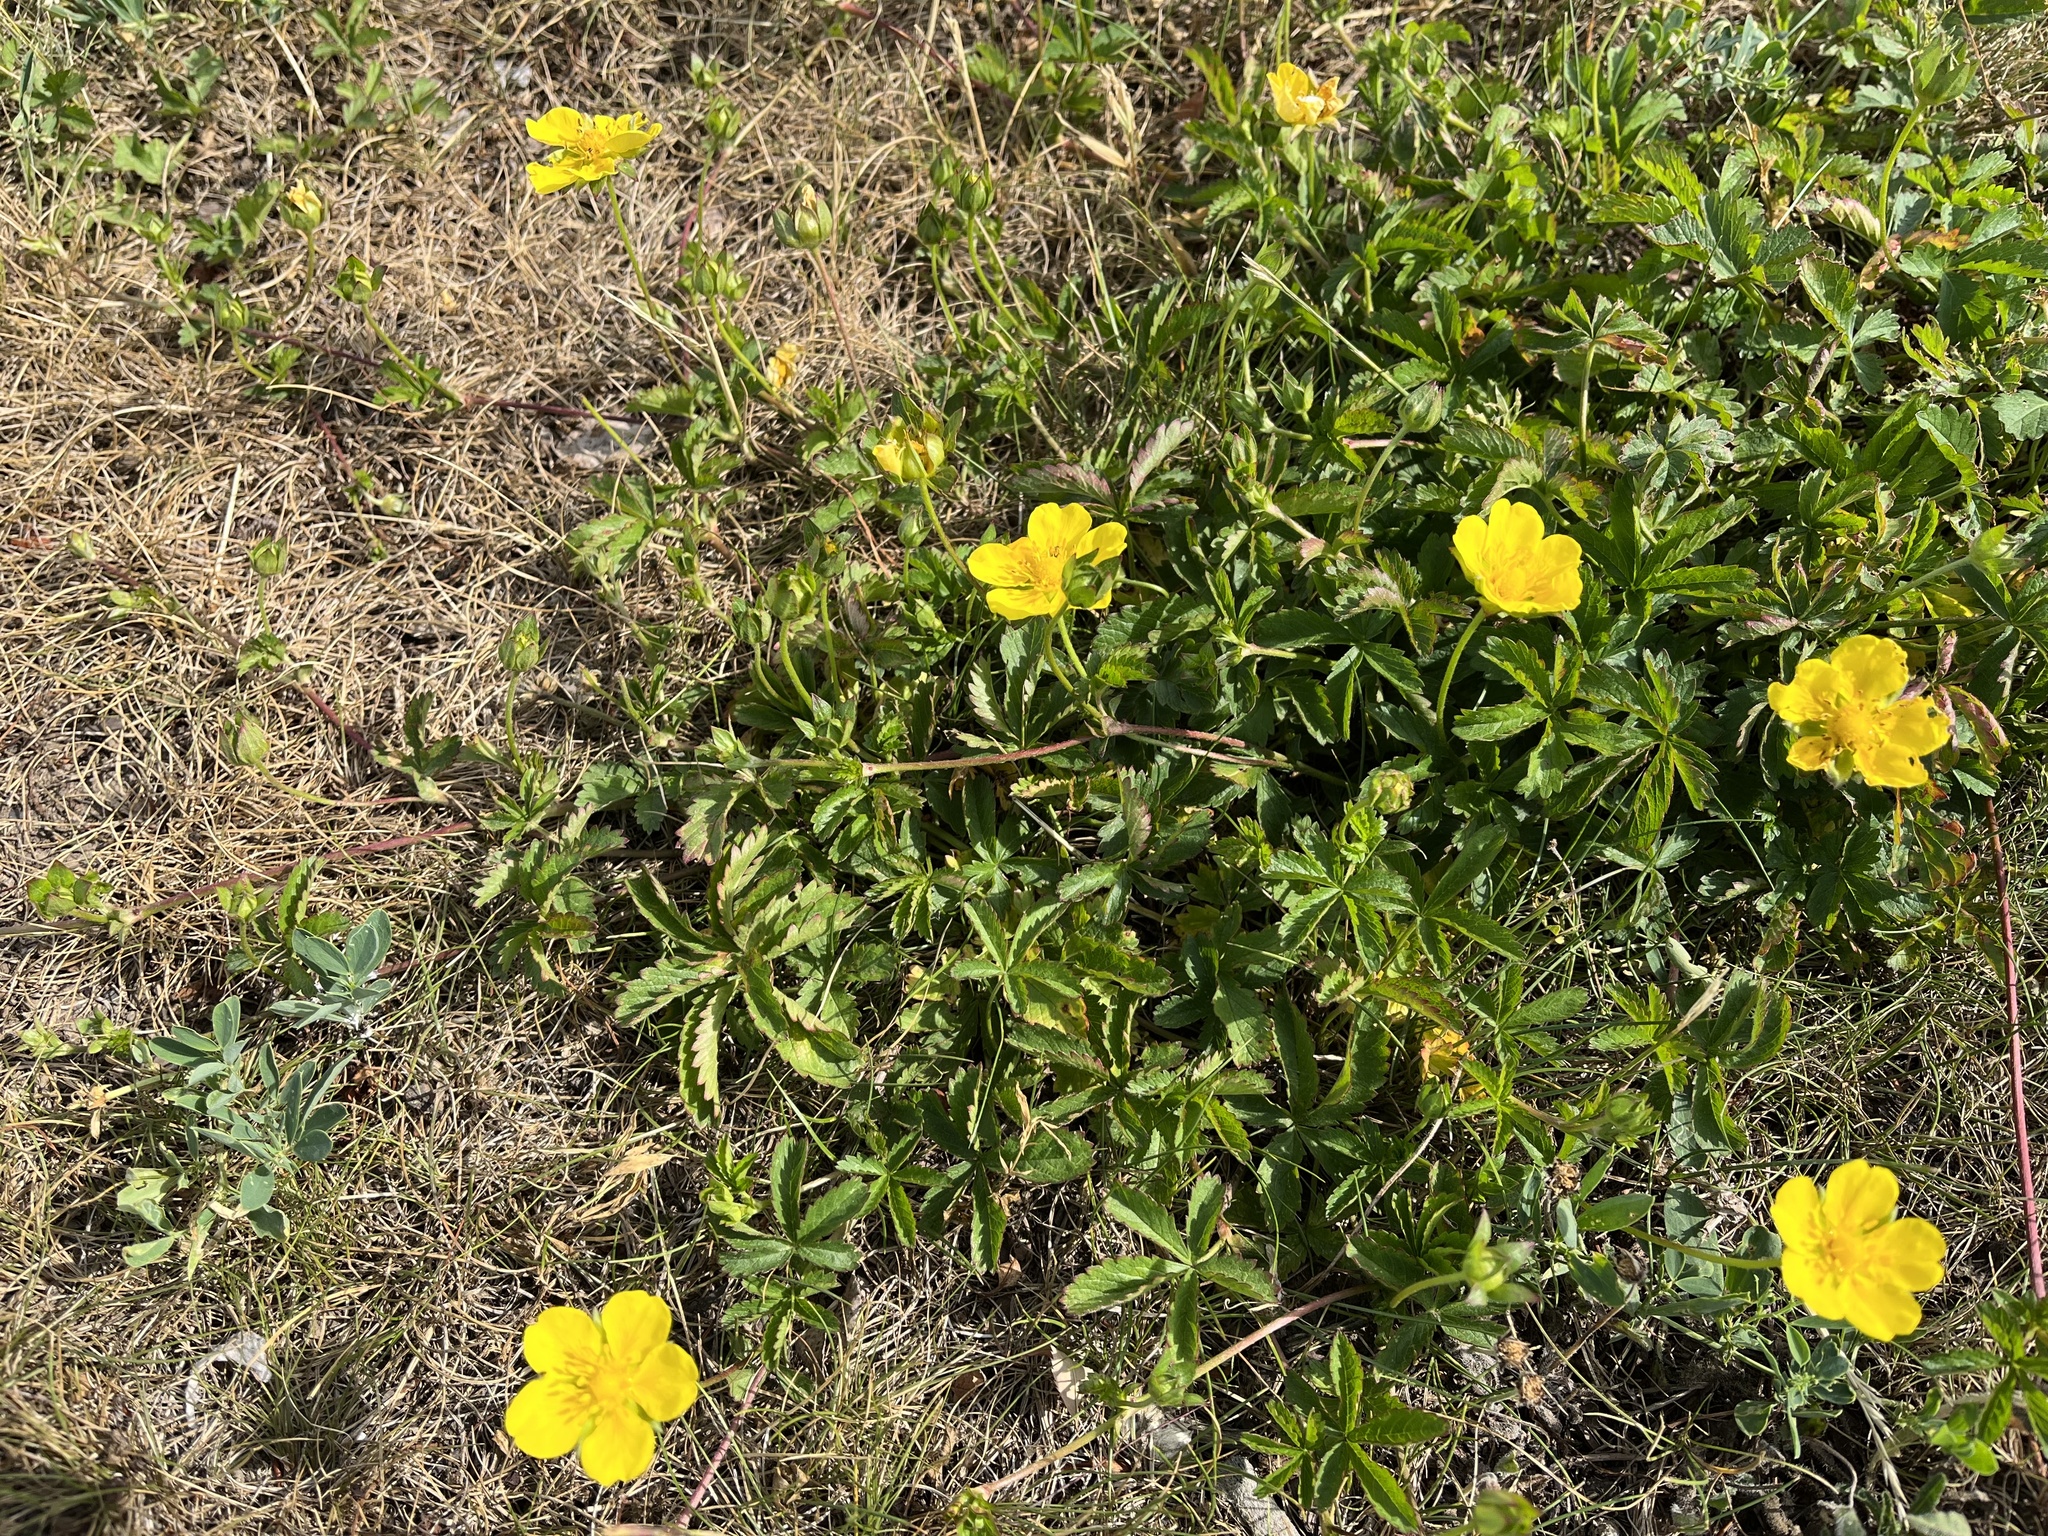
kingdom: Plantae
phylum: Tracheophyta
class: Magnoliopsida
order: Rosales
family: Rosaceae
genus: Potentilla
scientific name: Potentilla reptans
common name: Creeping cinquefoil
